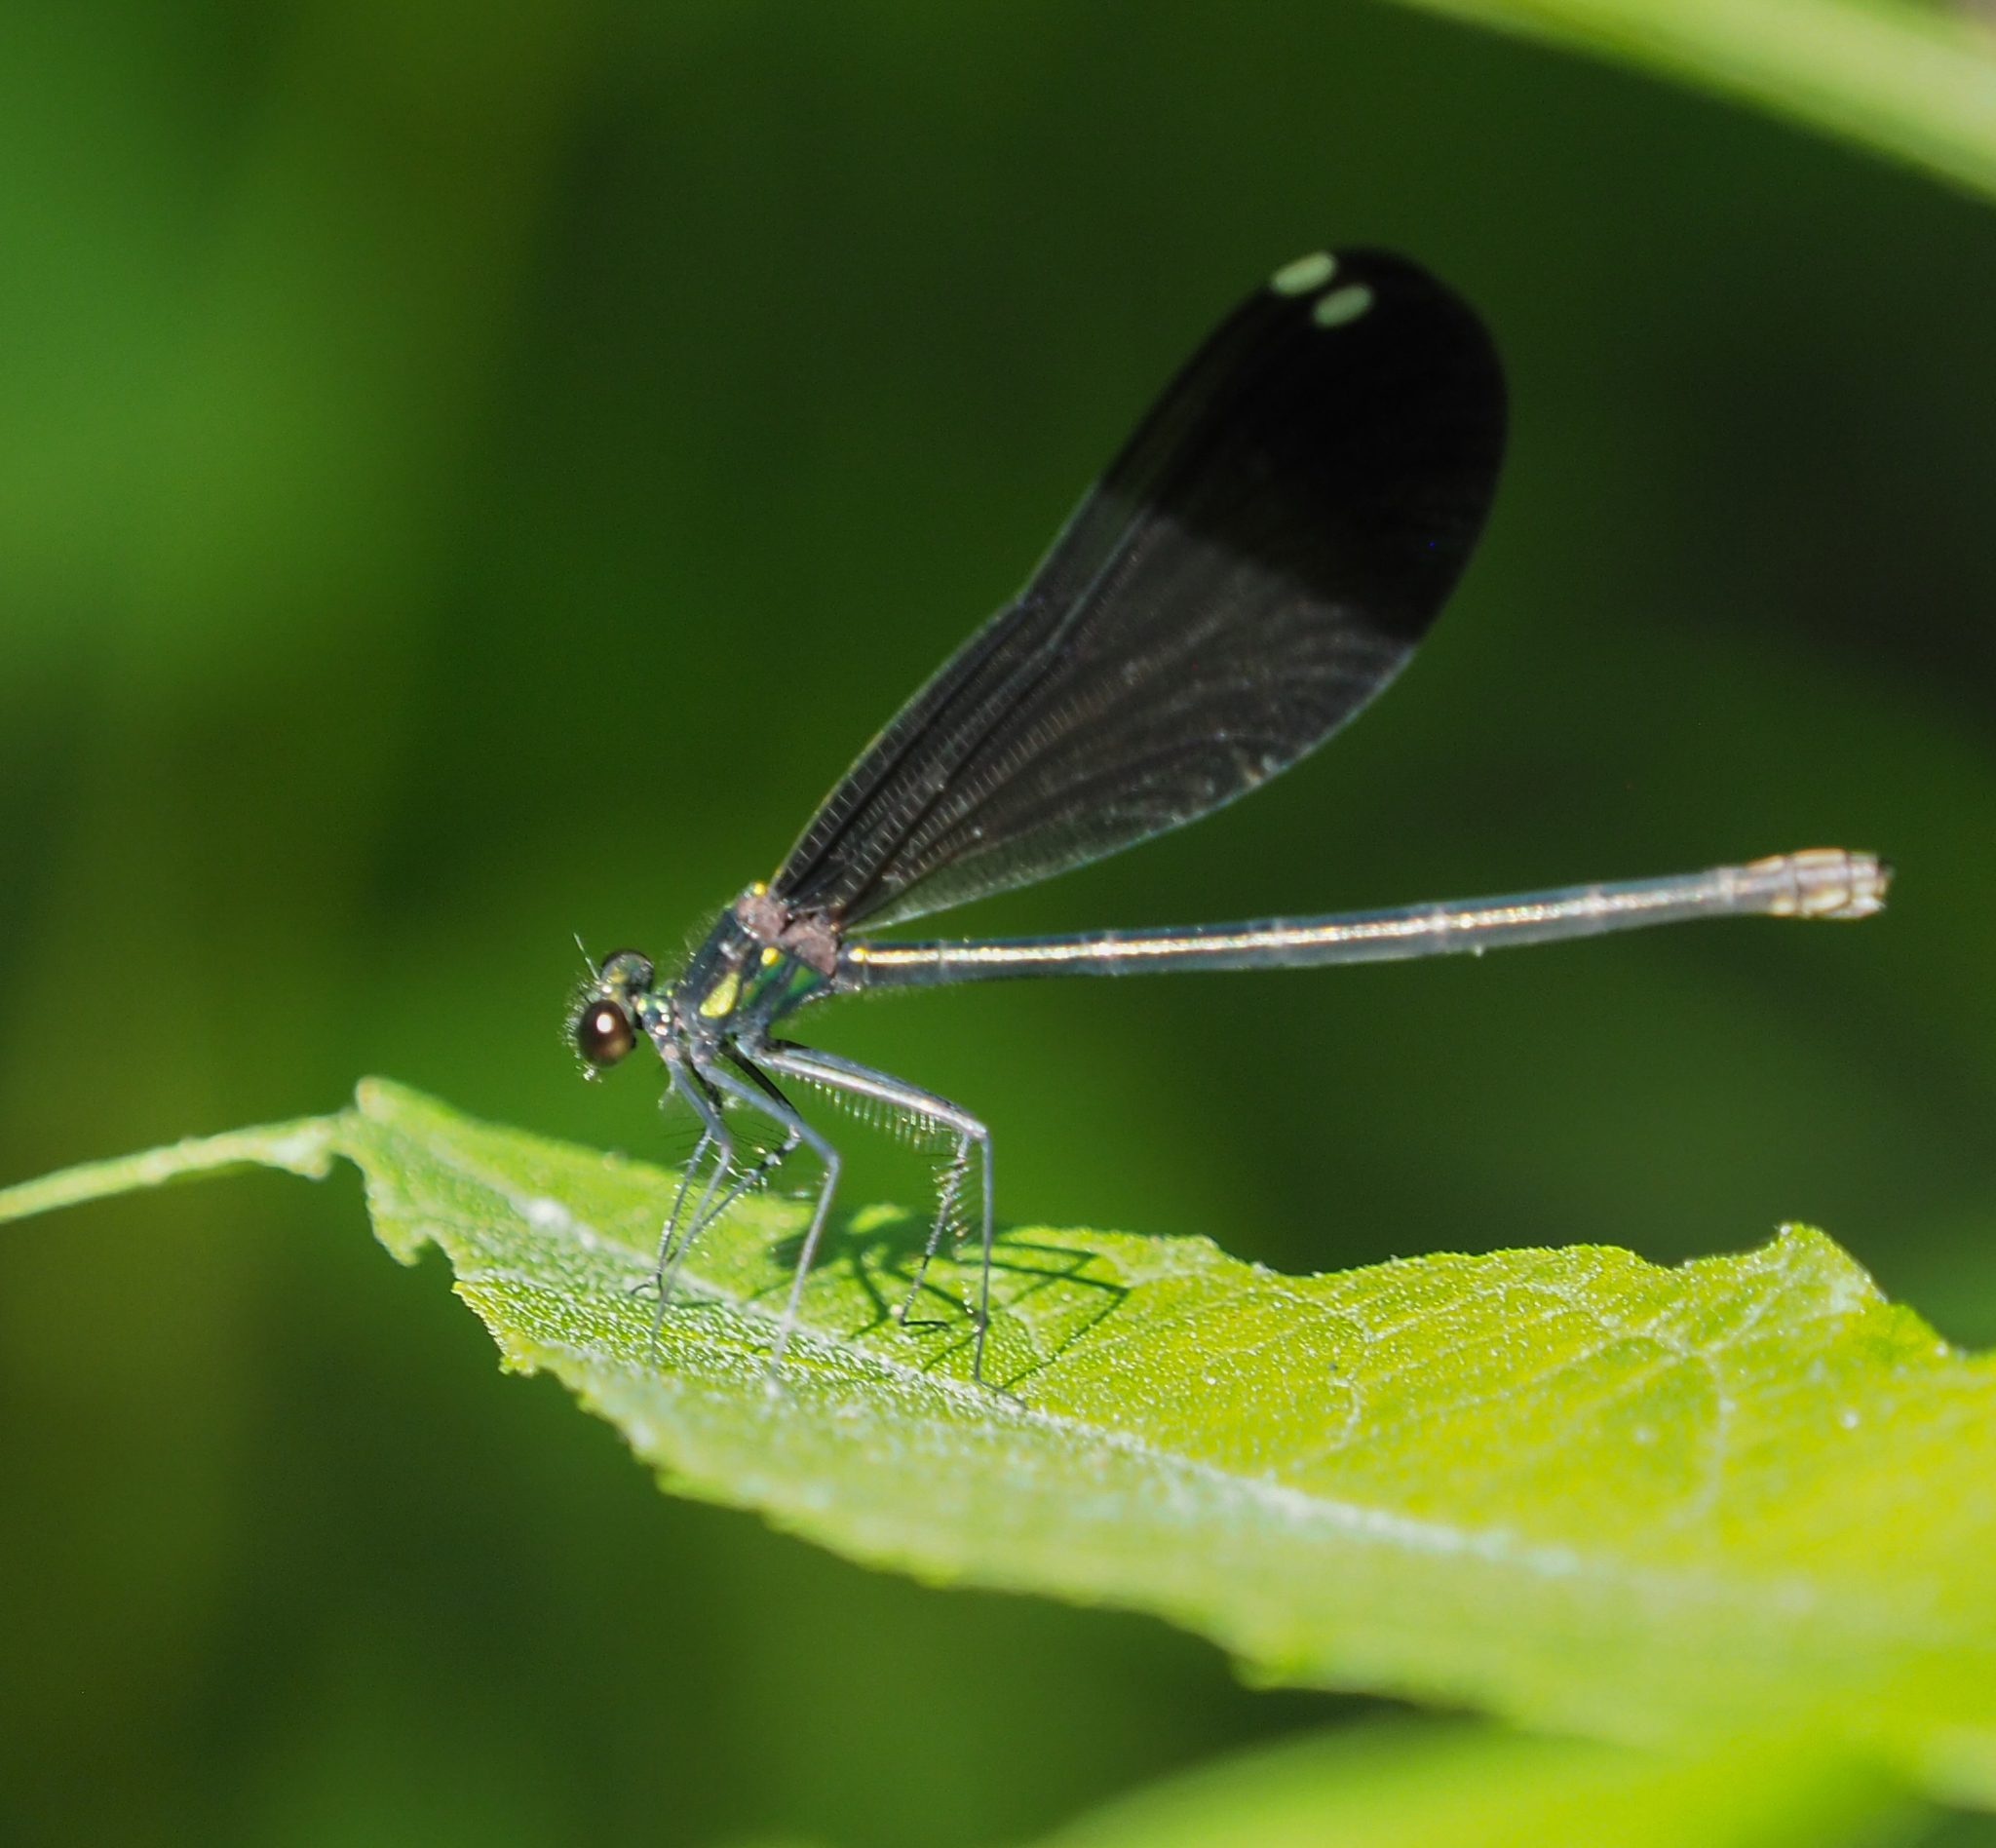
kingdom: Animalia
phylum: Arthropoda
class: Insecta
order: Odonata
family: Calopterygidae
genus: Calopteryx
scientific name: Calopteryx maculata
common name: Ebony jewelwing
